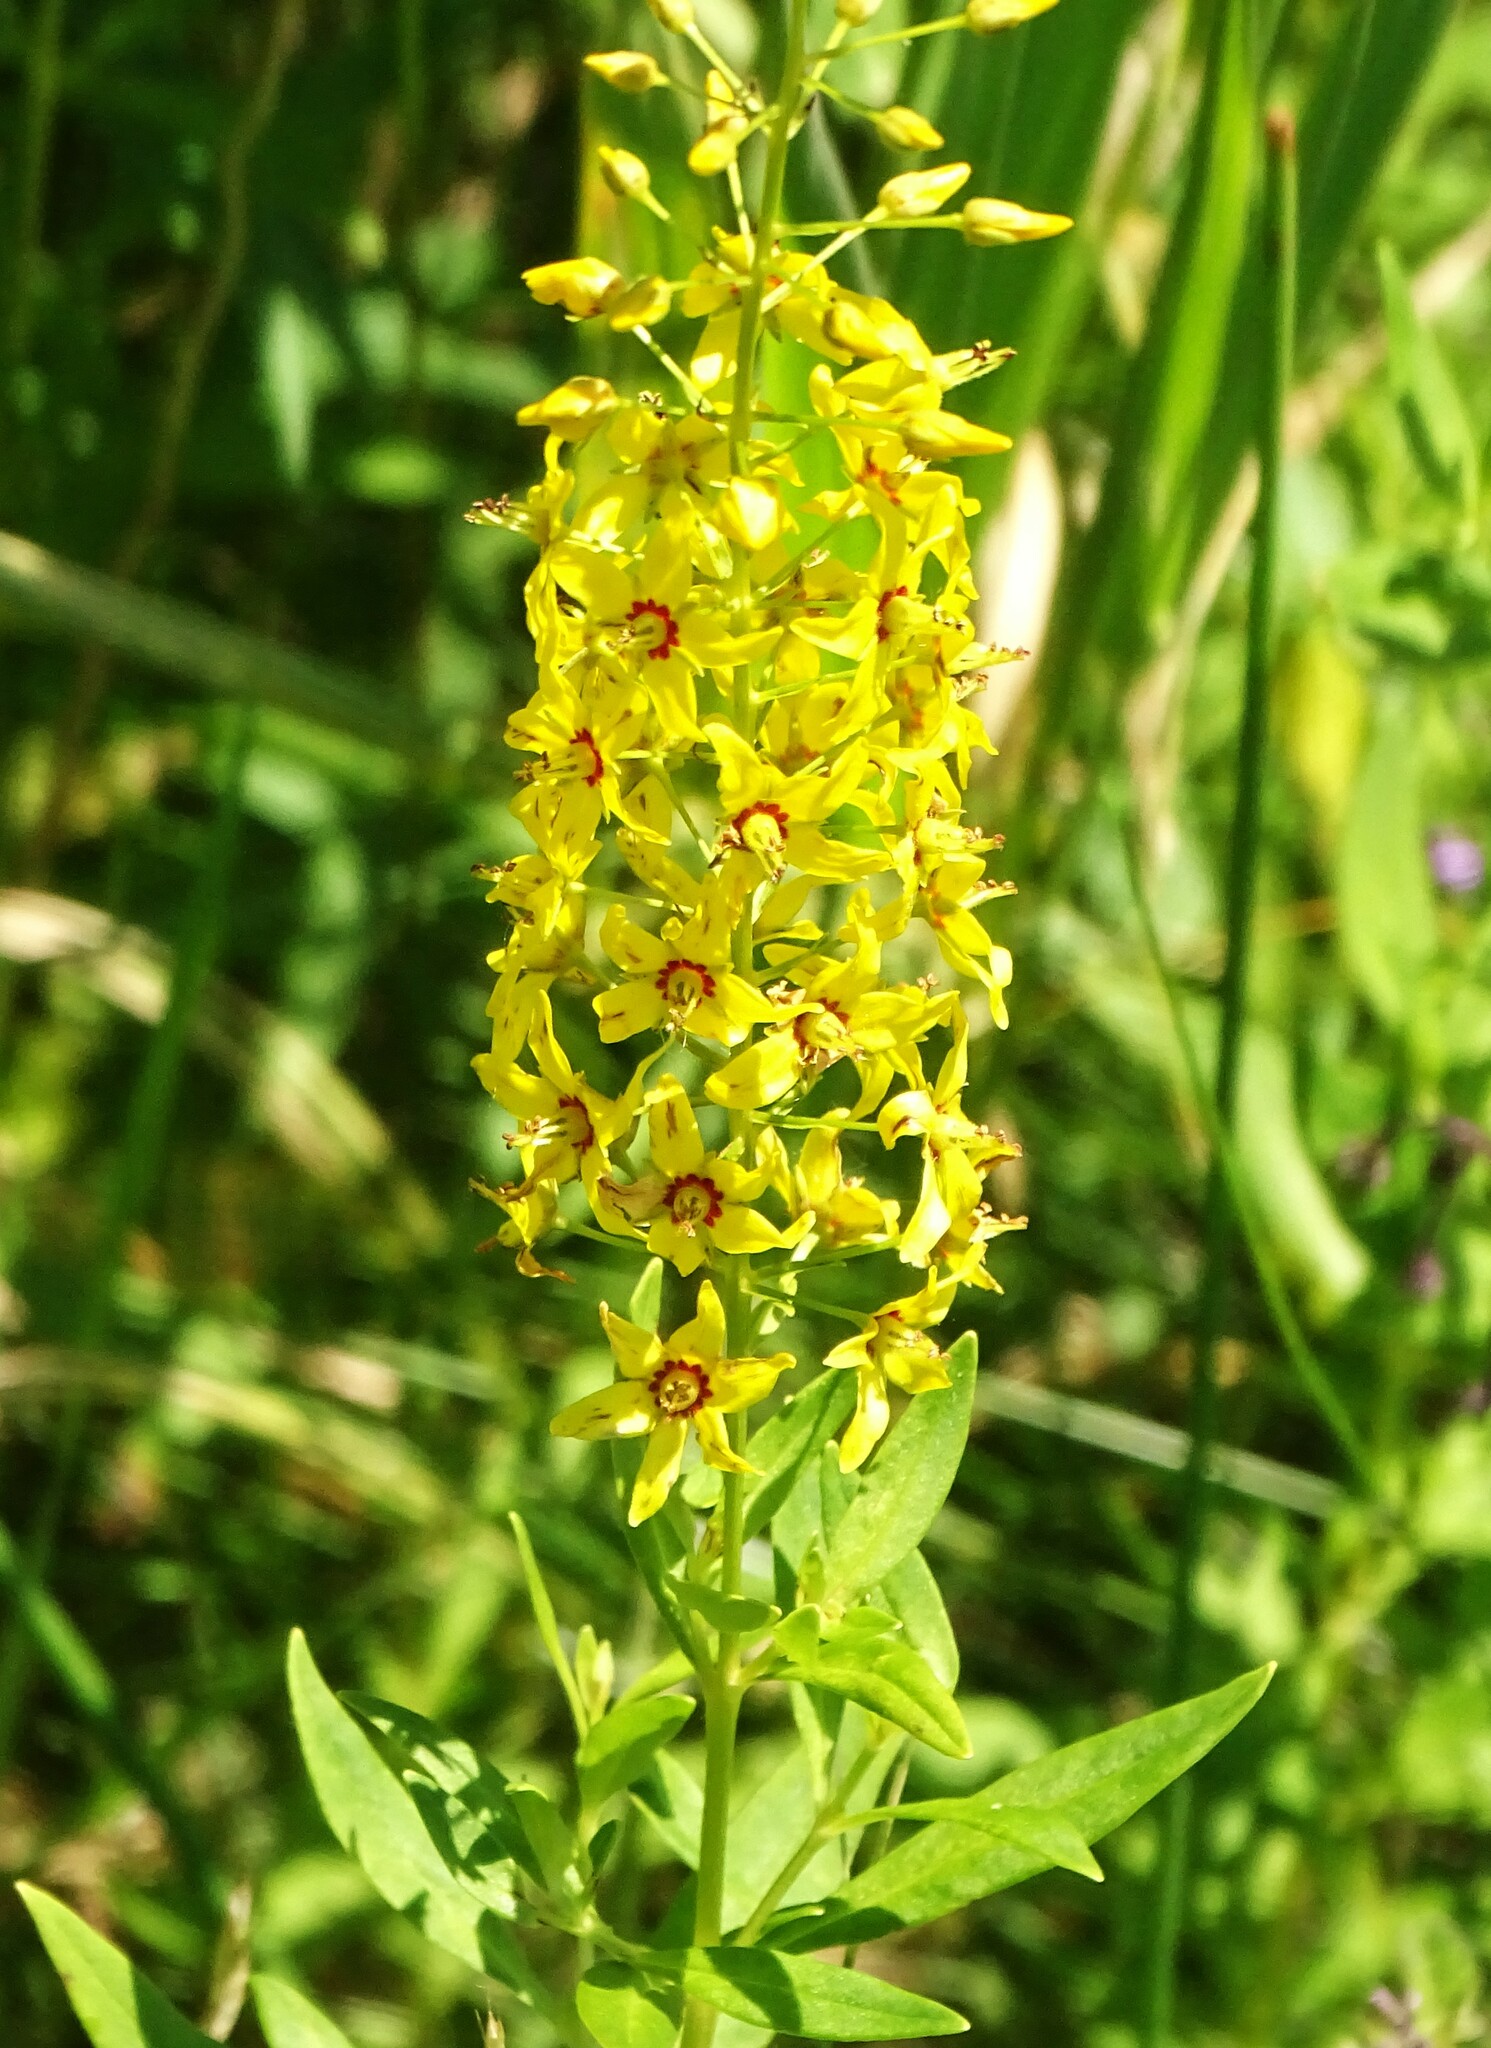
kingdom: Plantae
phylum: Tracheophyta
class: Magnoliopsida
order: Ericales
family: Primulaceae
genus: Lysimachia
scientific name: Lysimachia terrestris
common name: Lake loosestrife
